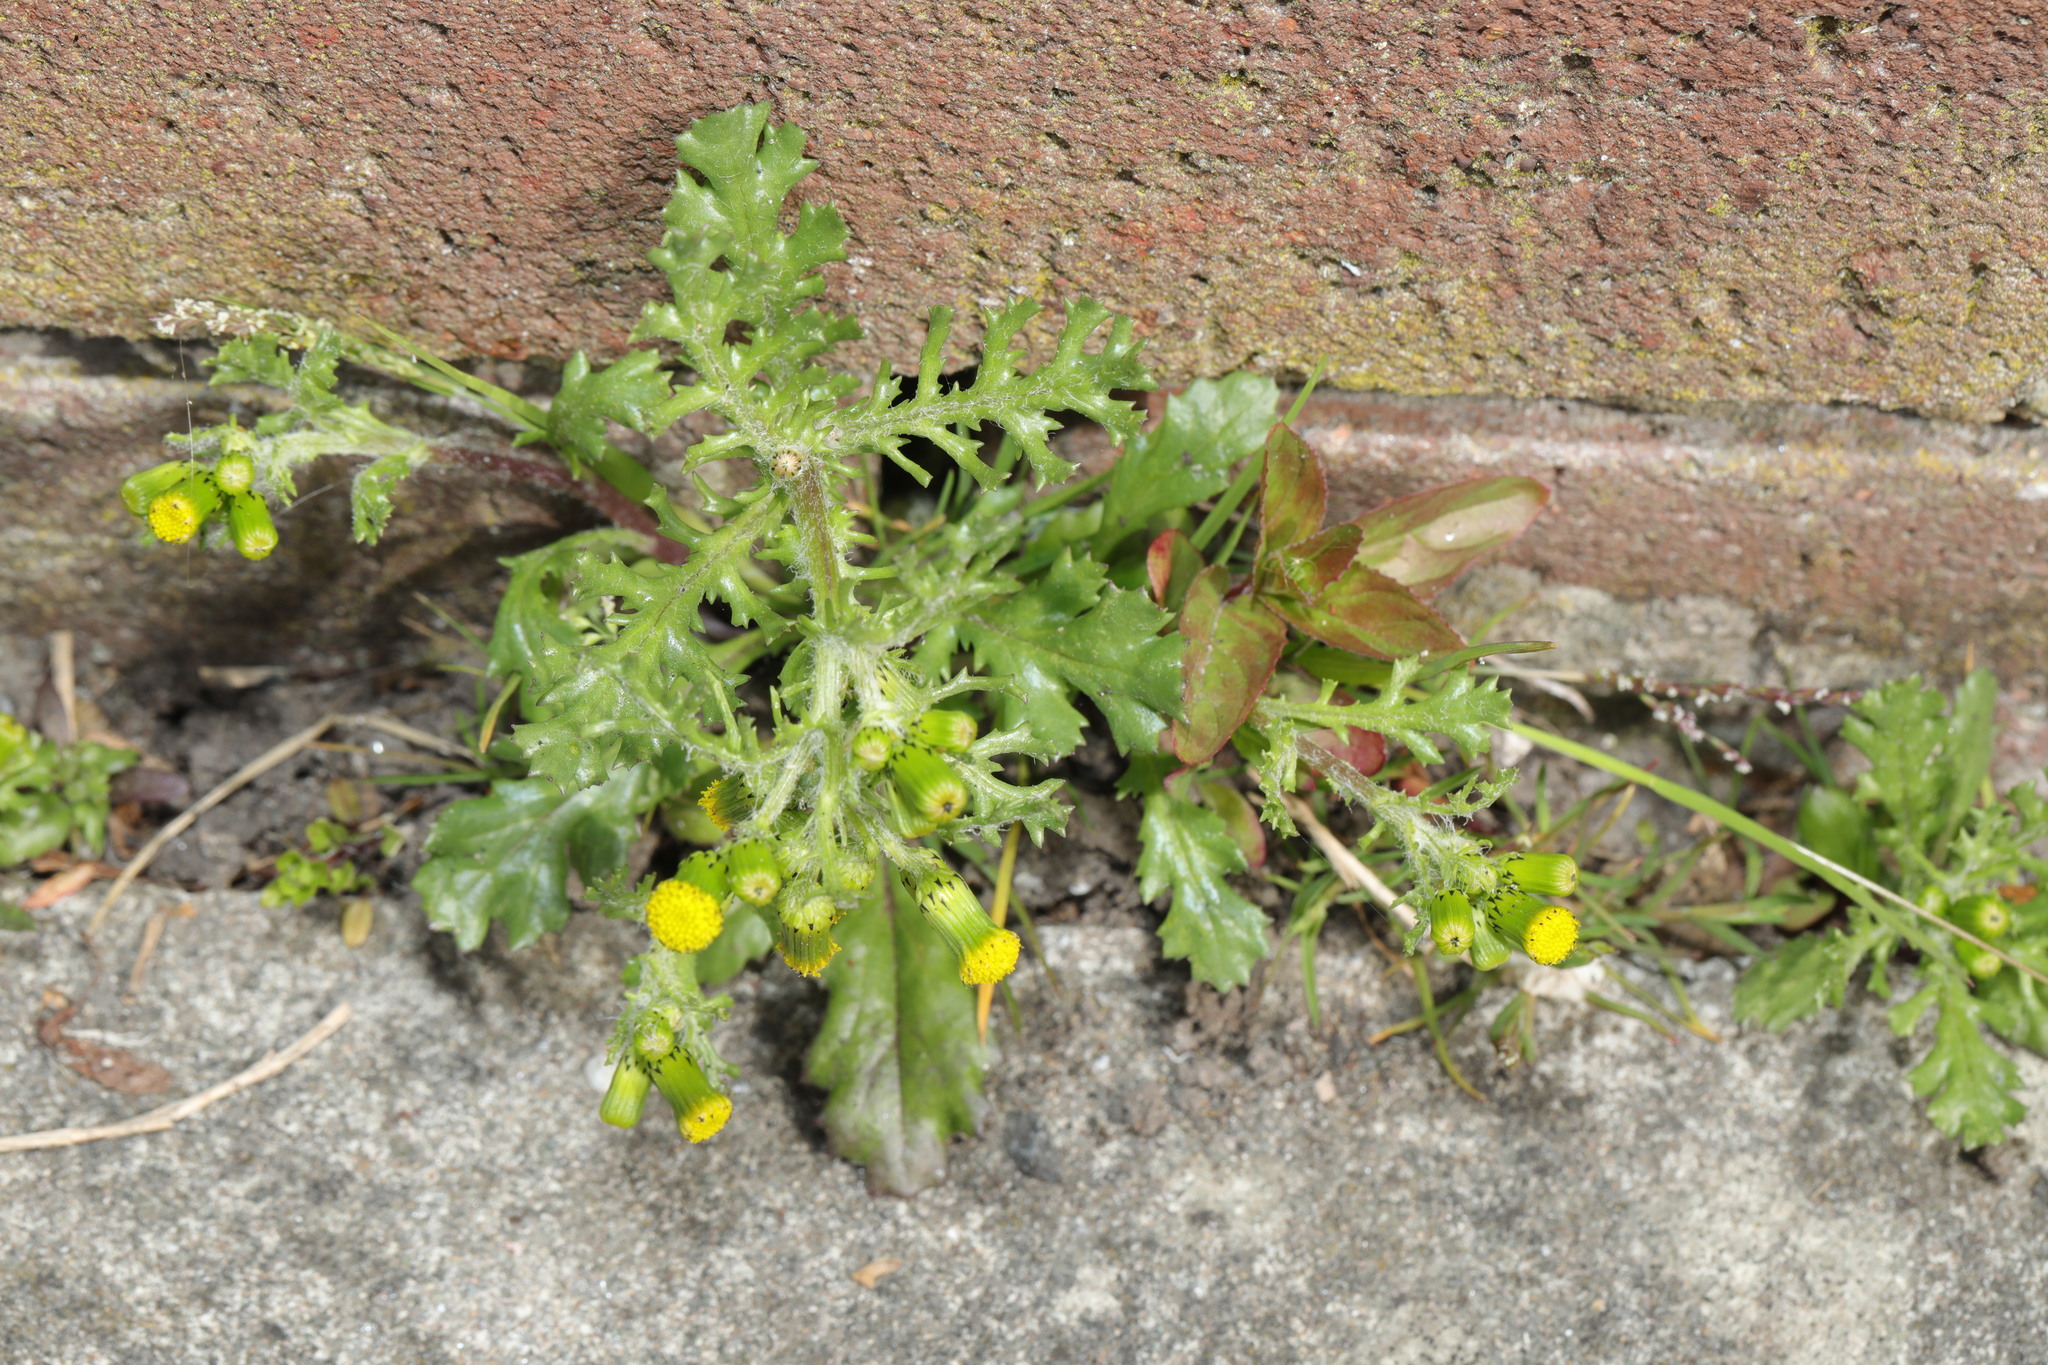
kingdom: Plantae
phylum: Tracheophyta
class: Magnoliopsida
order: Asterales
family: Asteraceae
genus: Senecio
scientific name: Senecio vulgaris
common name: Old-man-in-the-spring
